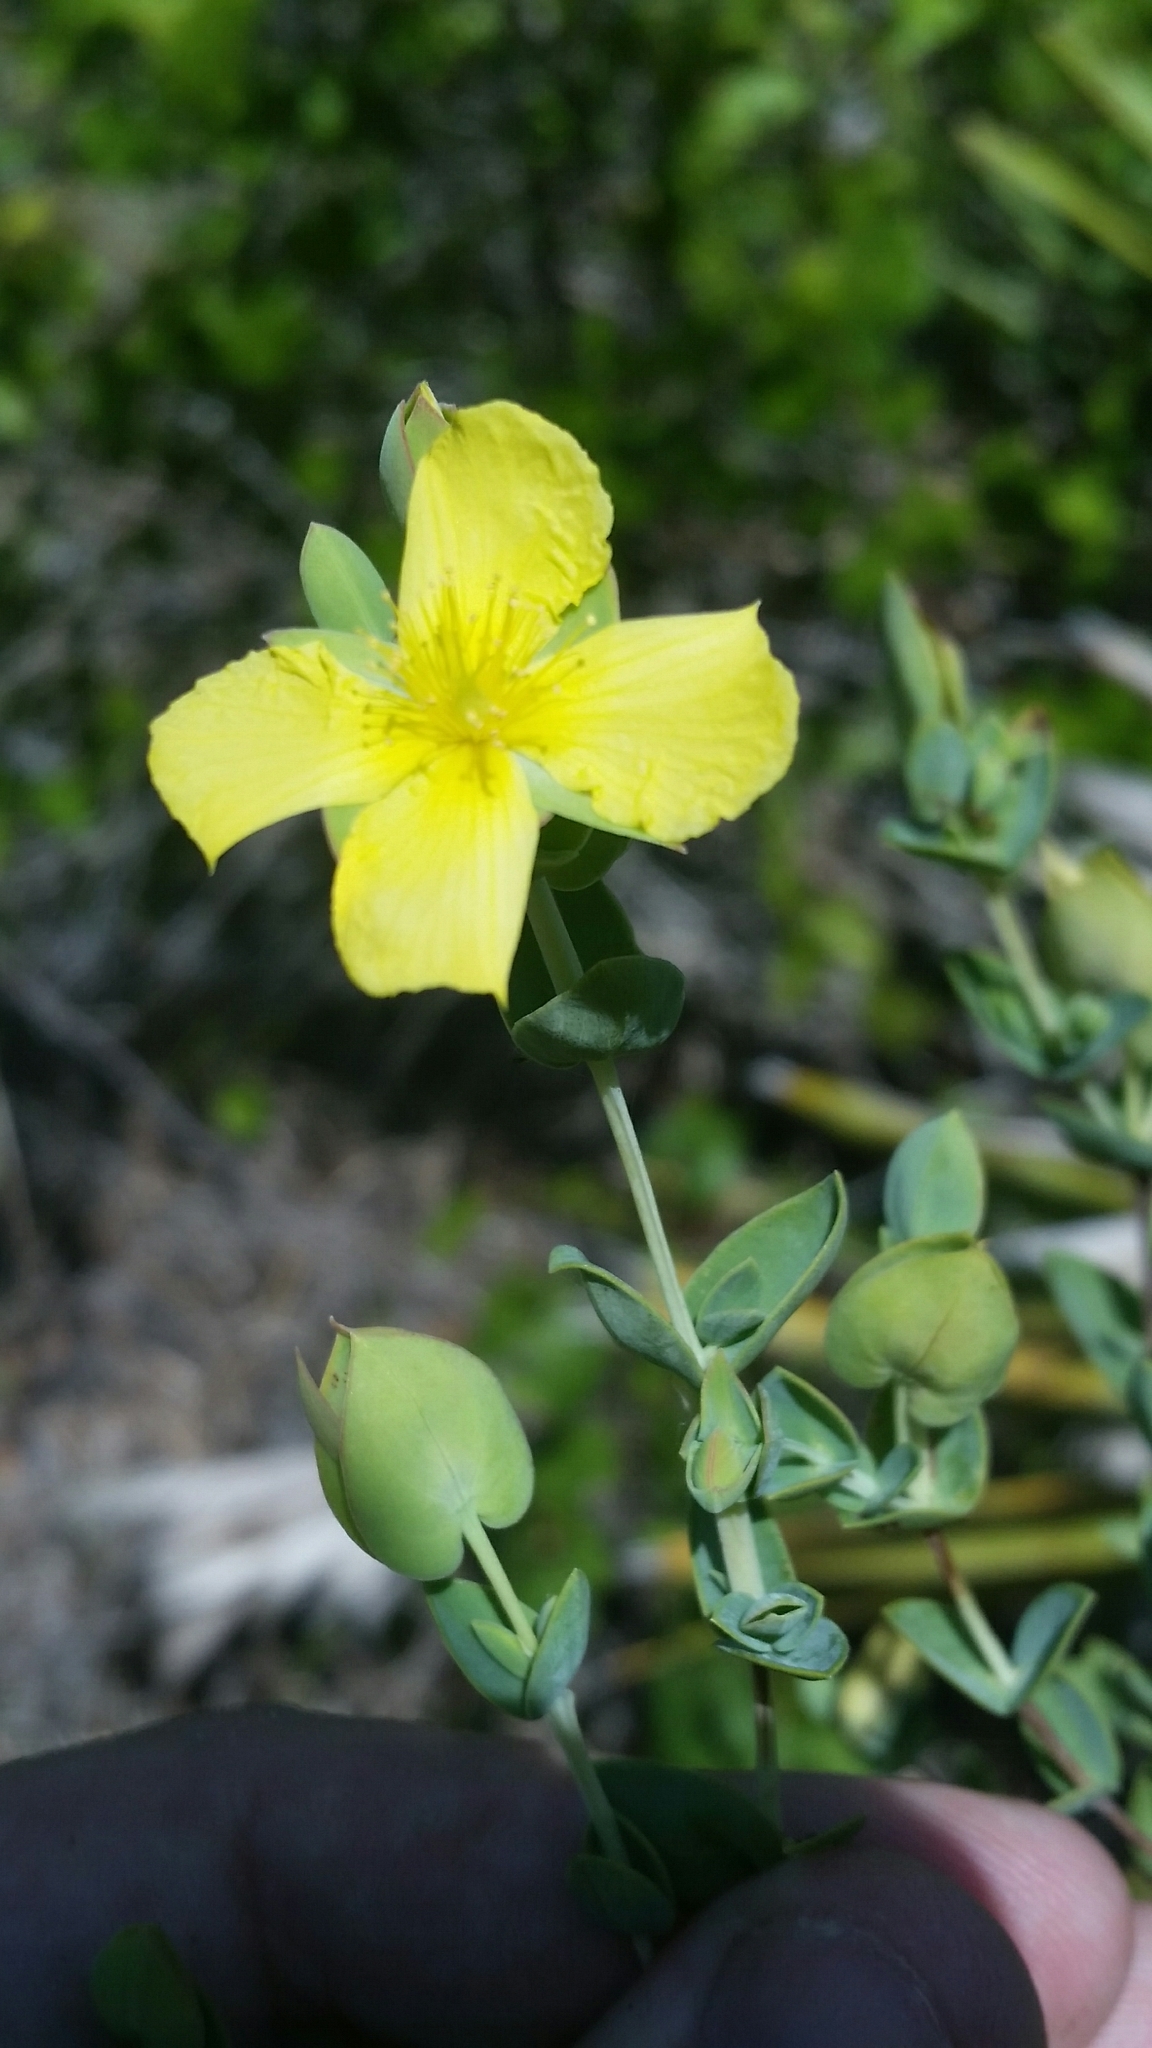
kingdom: Plantae
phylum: Tracheophyta
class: Magnoliopsida
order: Malpighiales
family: Hypericaceae
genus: Hypericum
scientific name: Hypericum tetrapetalum
